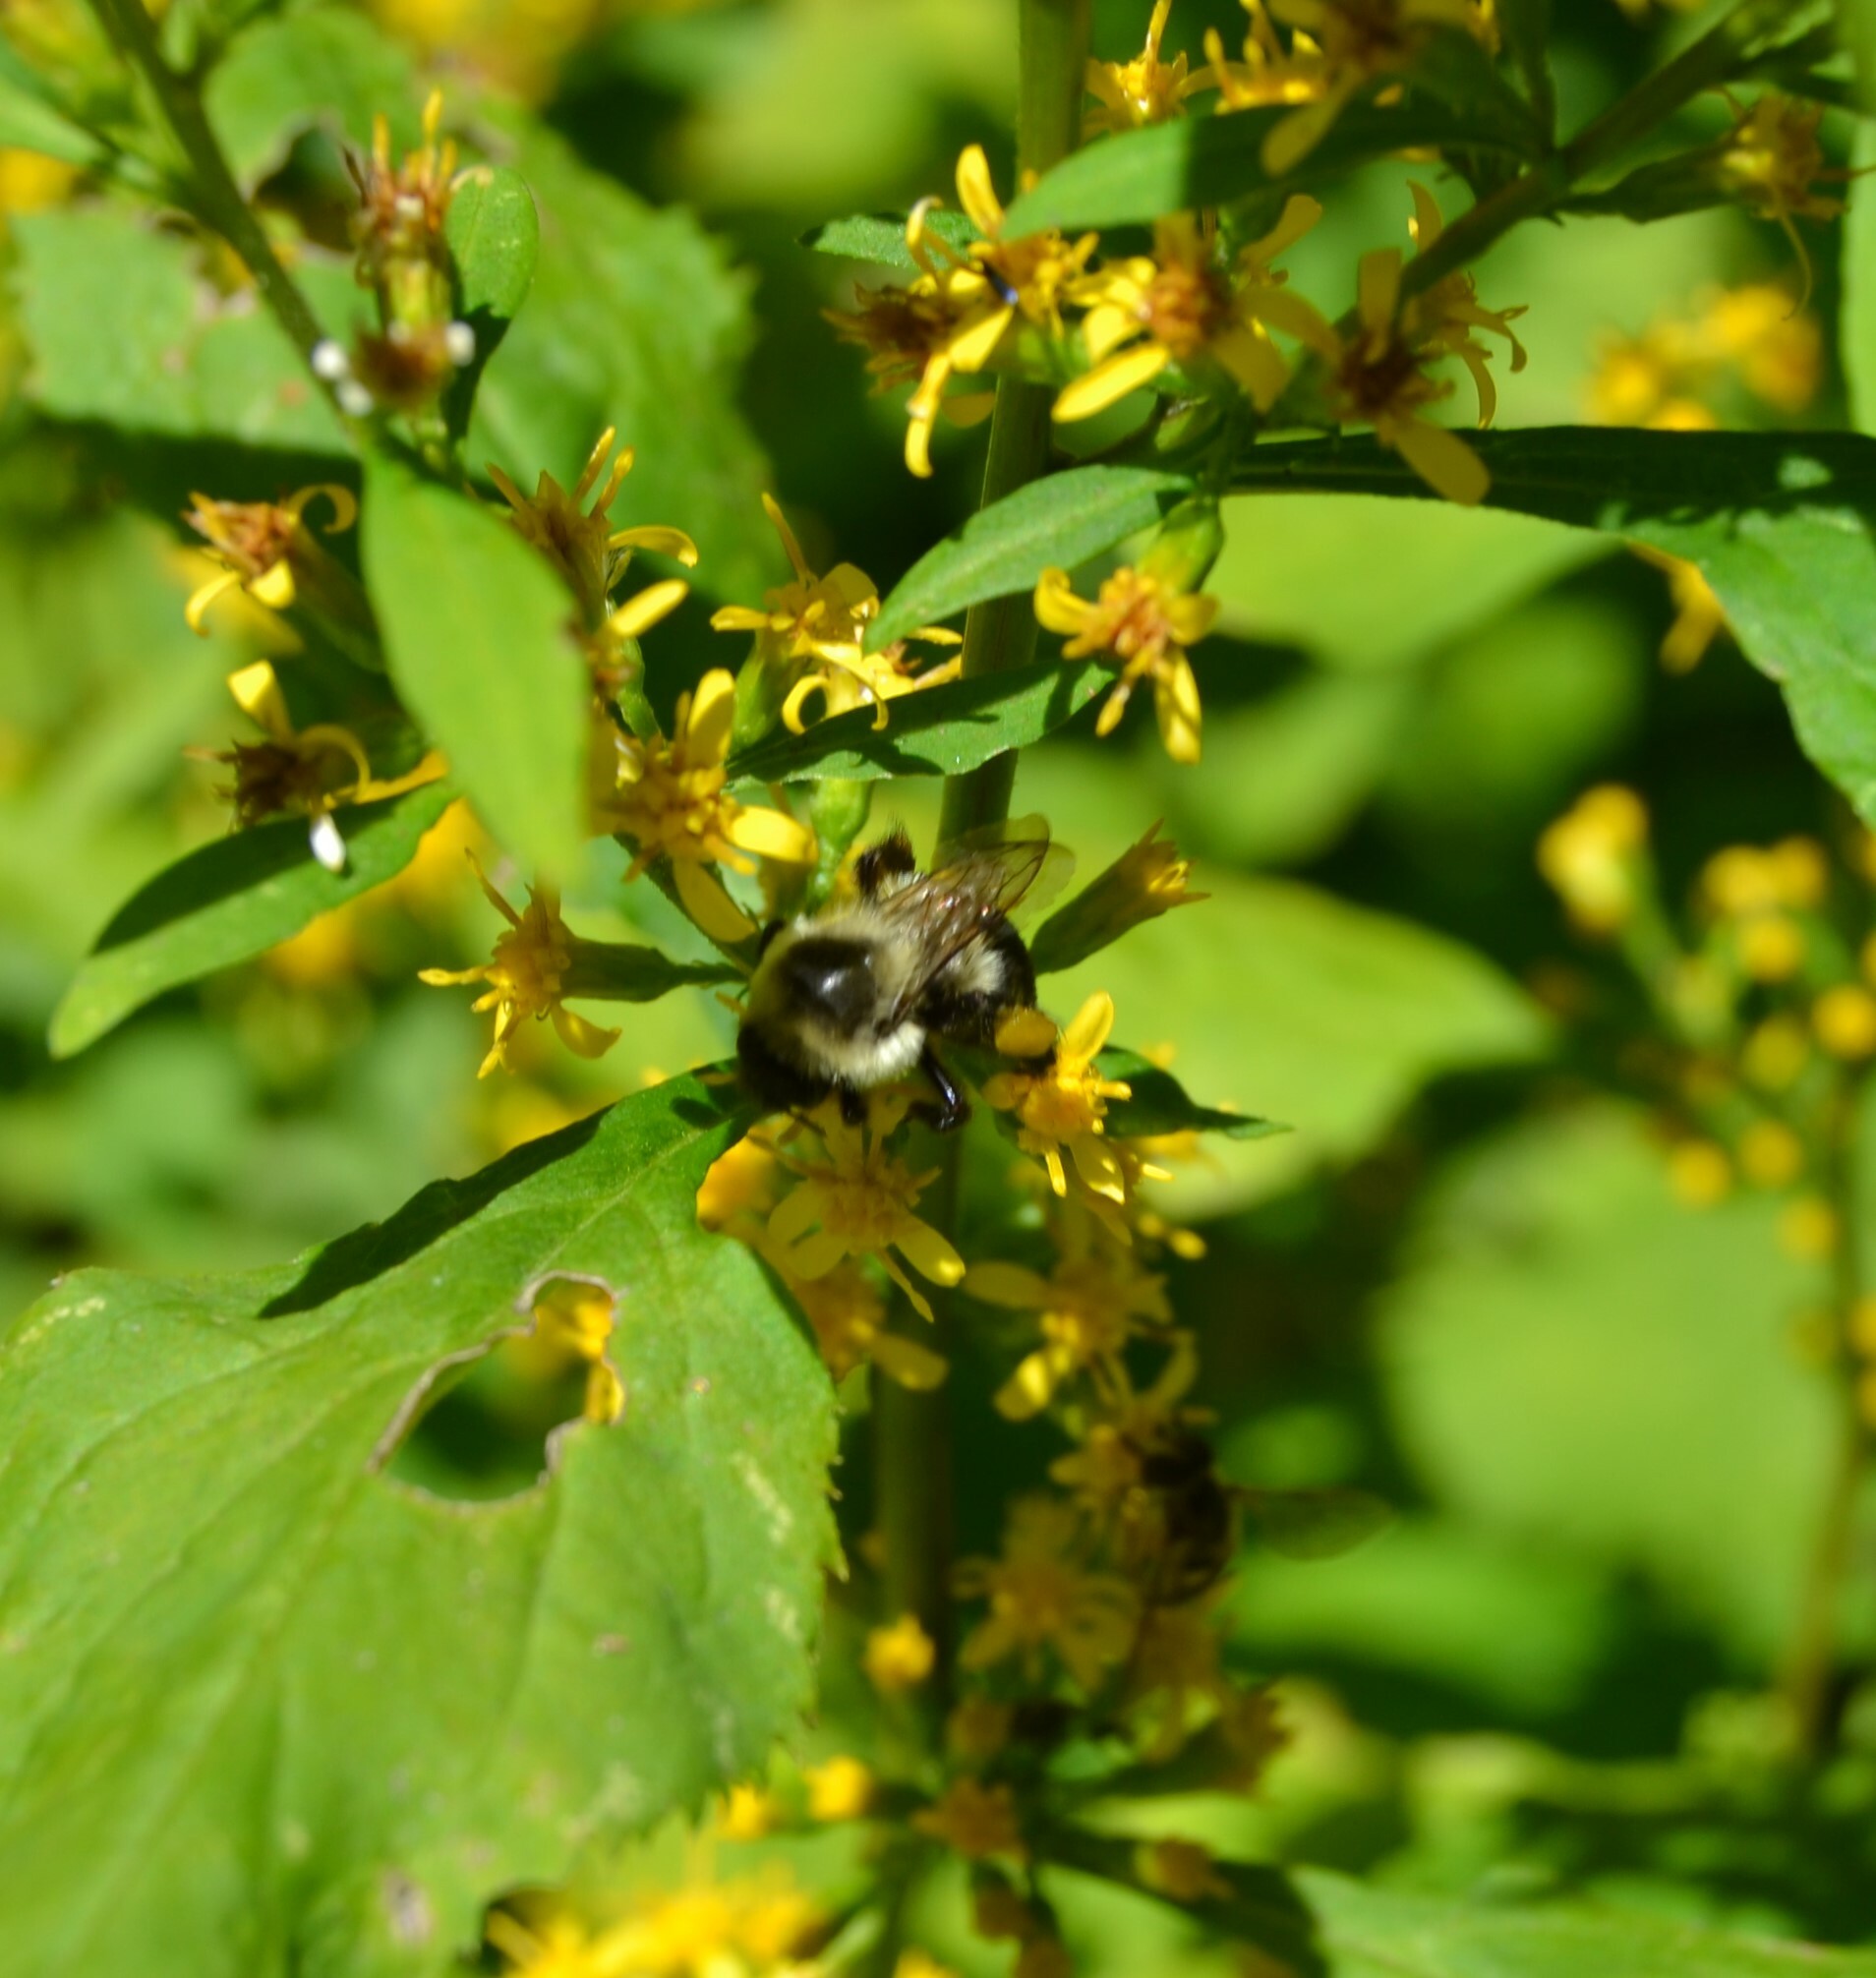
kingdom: Animalia
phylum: Arthropoda
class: Insecta
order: Hymenoptera
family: Apidae
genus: Bombus
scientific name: Bombus impatiens
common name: Common eastern bumble bee
